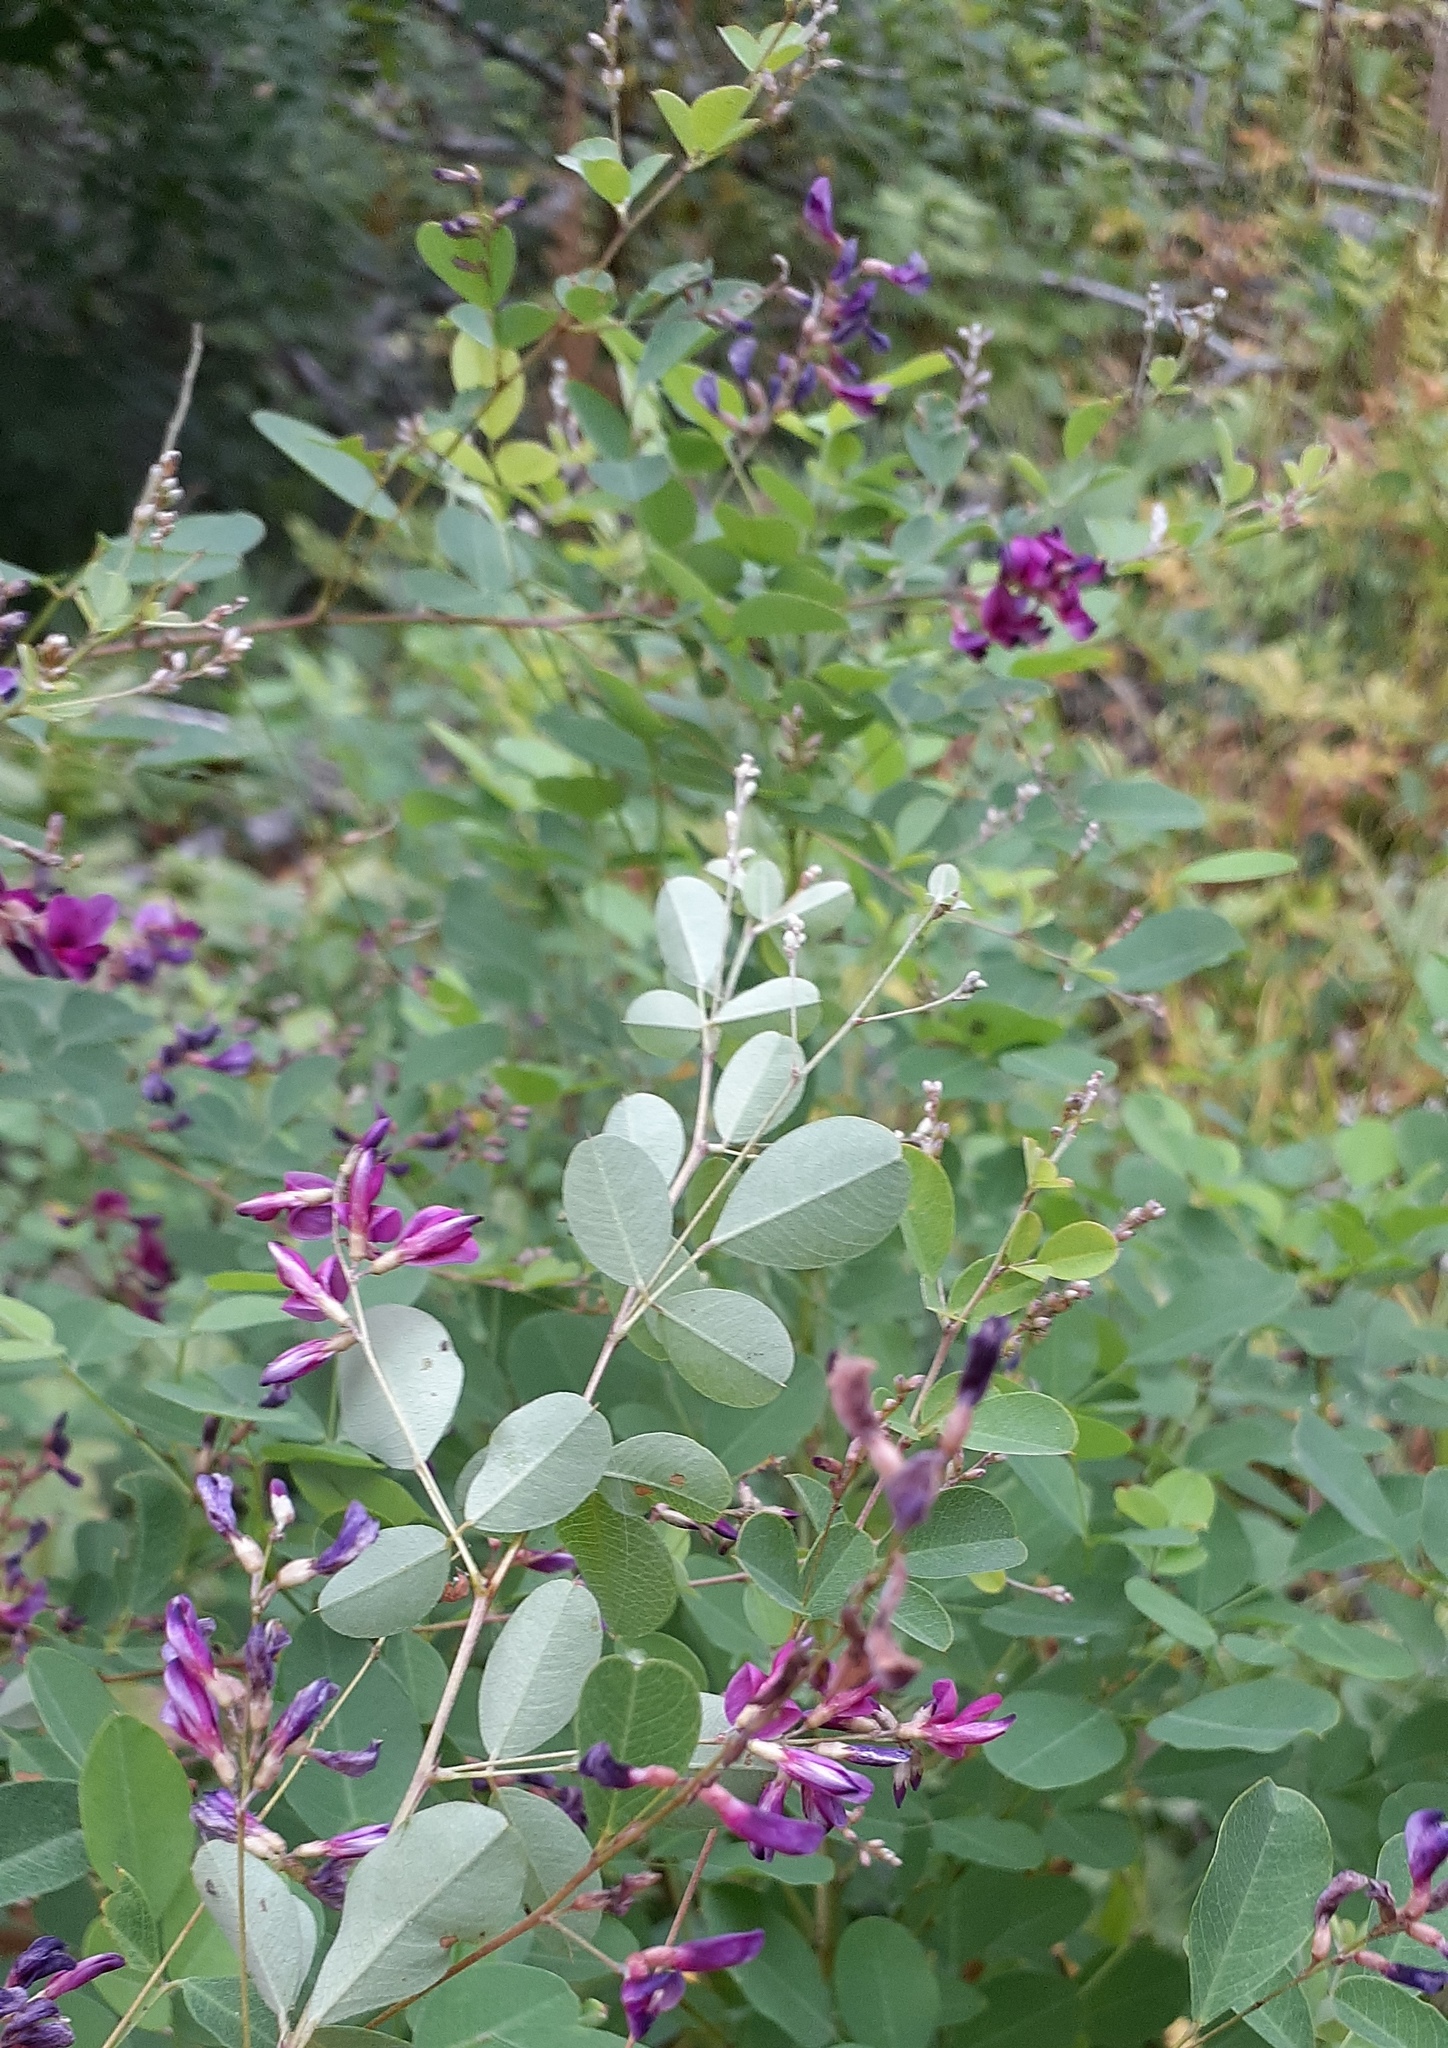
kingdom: Plantae
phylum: Tracheophyta
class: Magnoliopsida
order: Fabales
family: Fabaceae
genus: Lespedeza
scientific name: Lespedeza bicolor
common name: Shrub lespedeza
